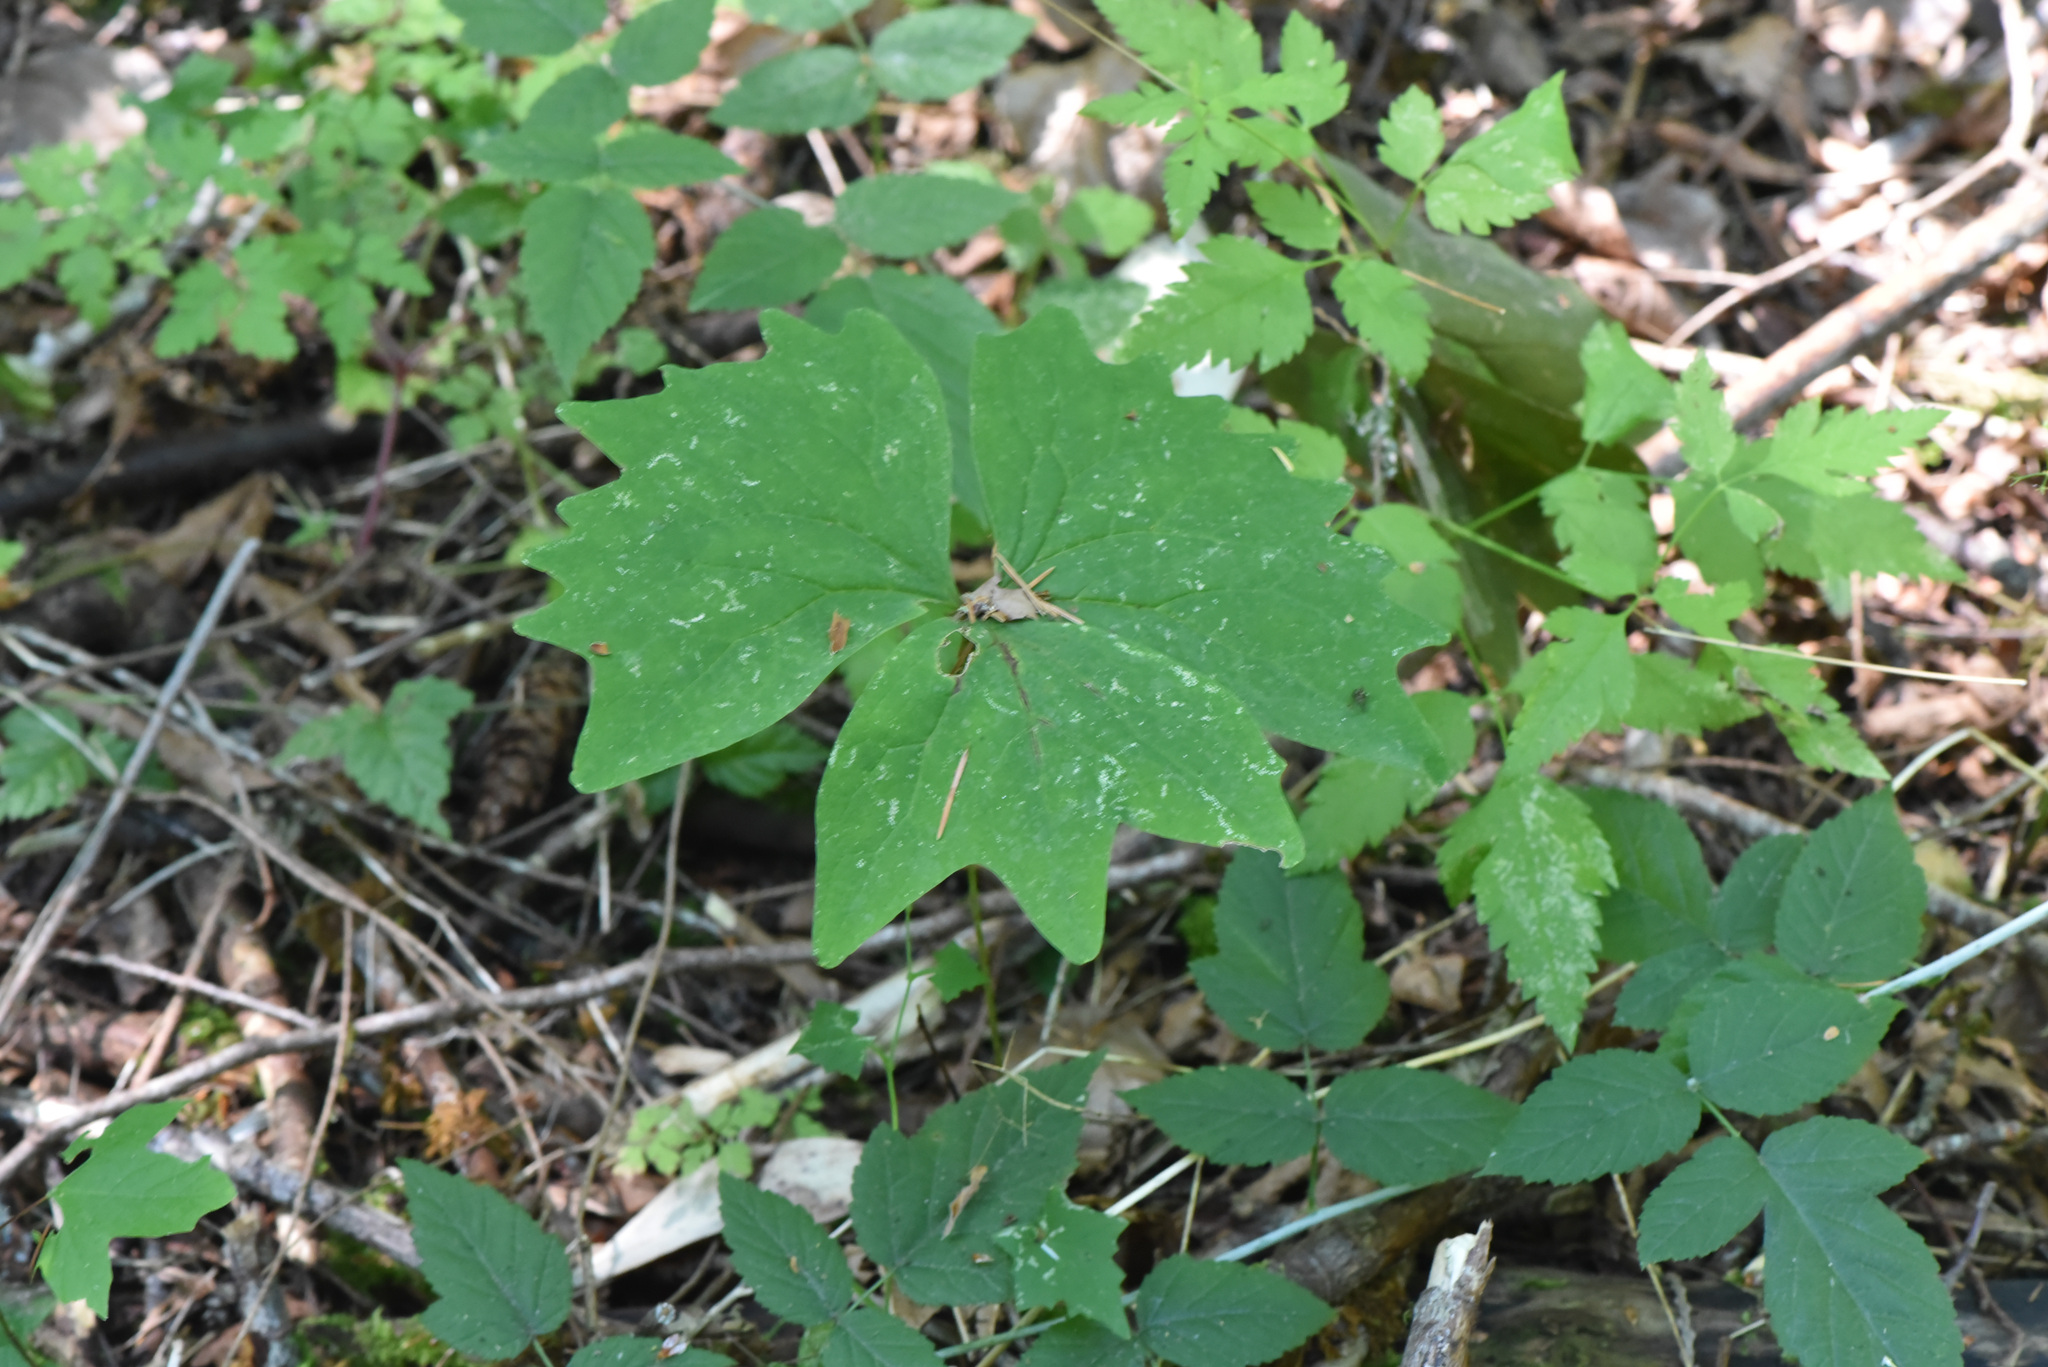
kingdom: Plantae
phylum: Tracheophyta
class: Magnoliopsida
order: Ranunculales
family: Berberidaceae
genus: Achlys
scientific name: Achlys triphylla
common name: Vanilla-leaf
